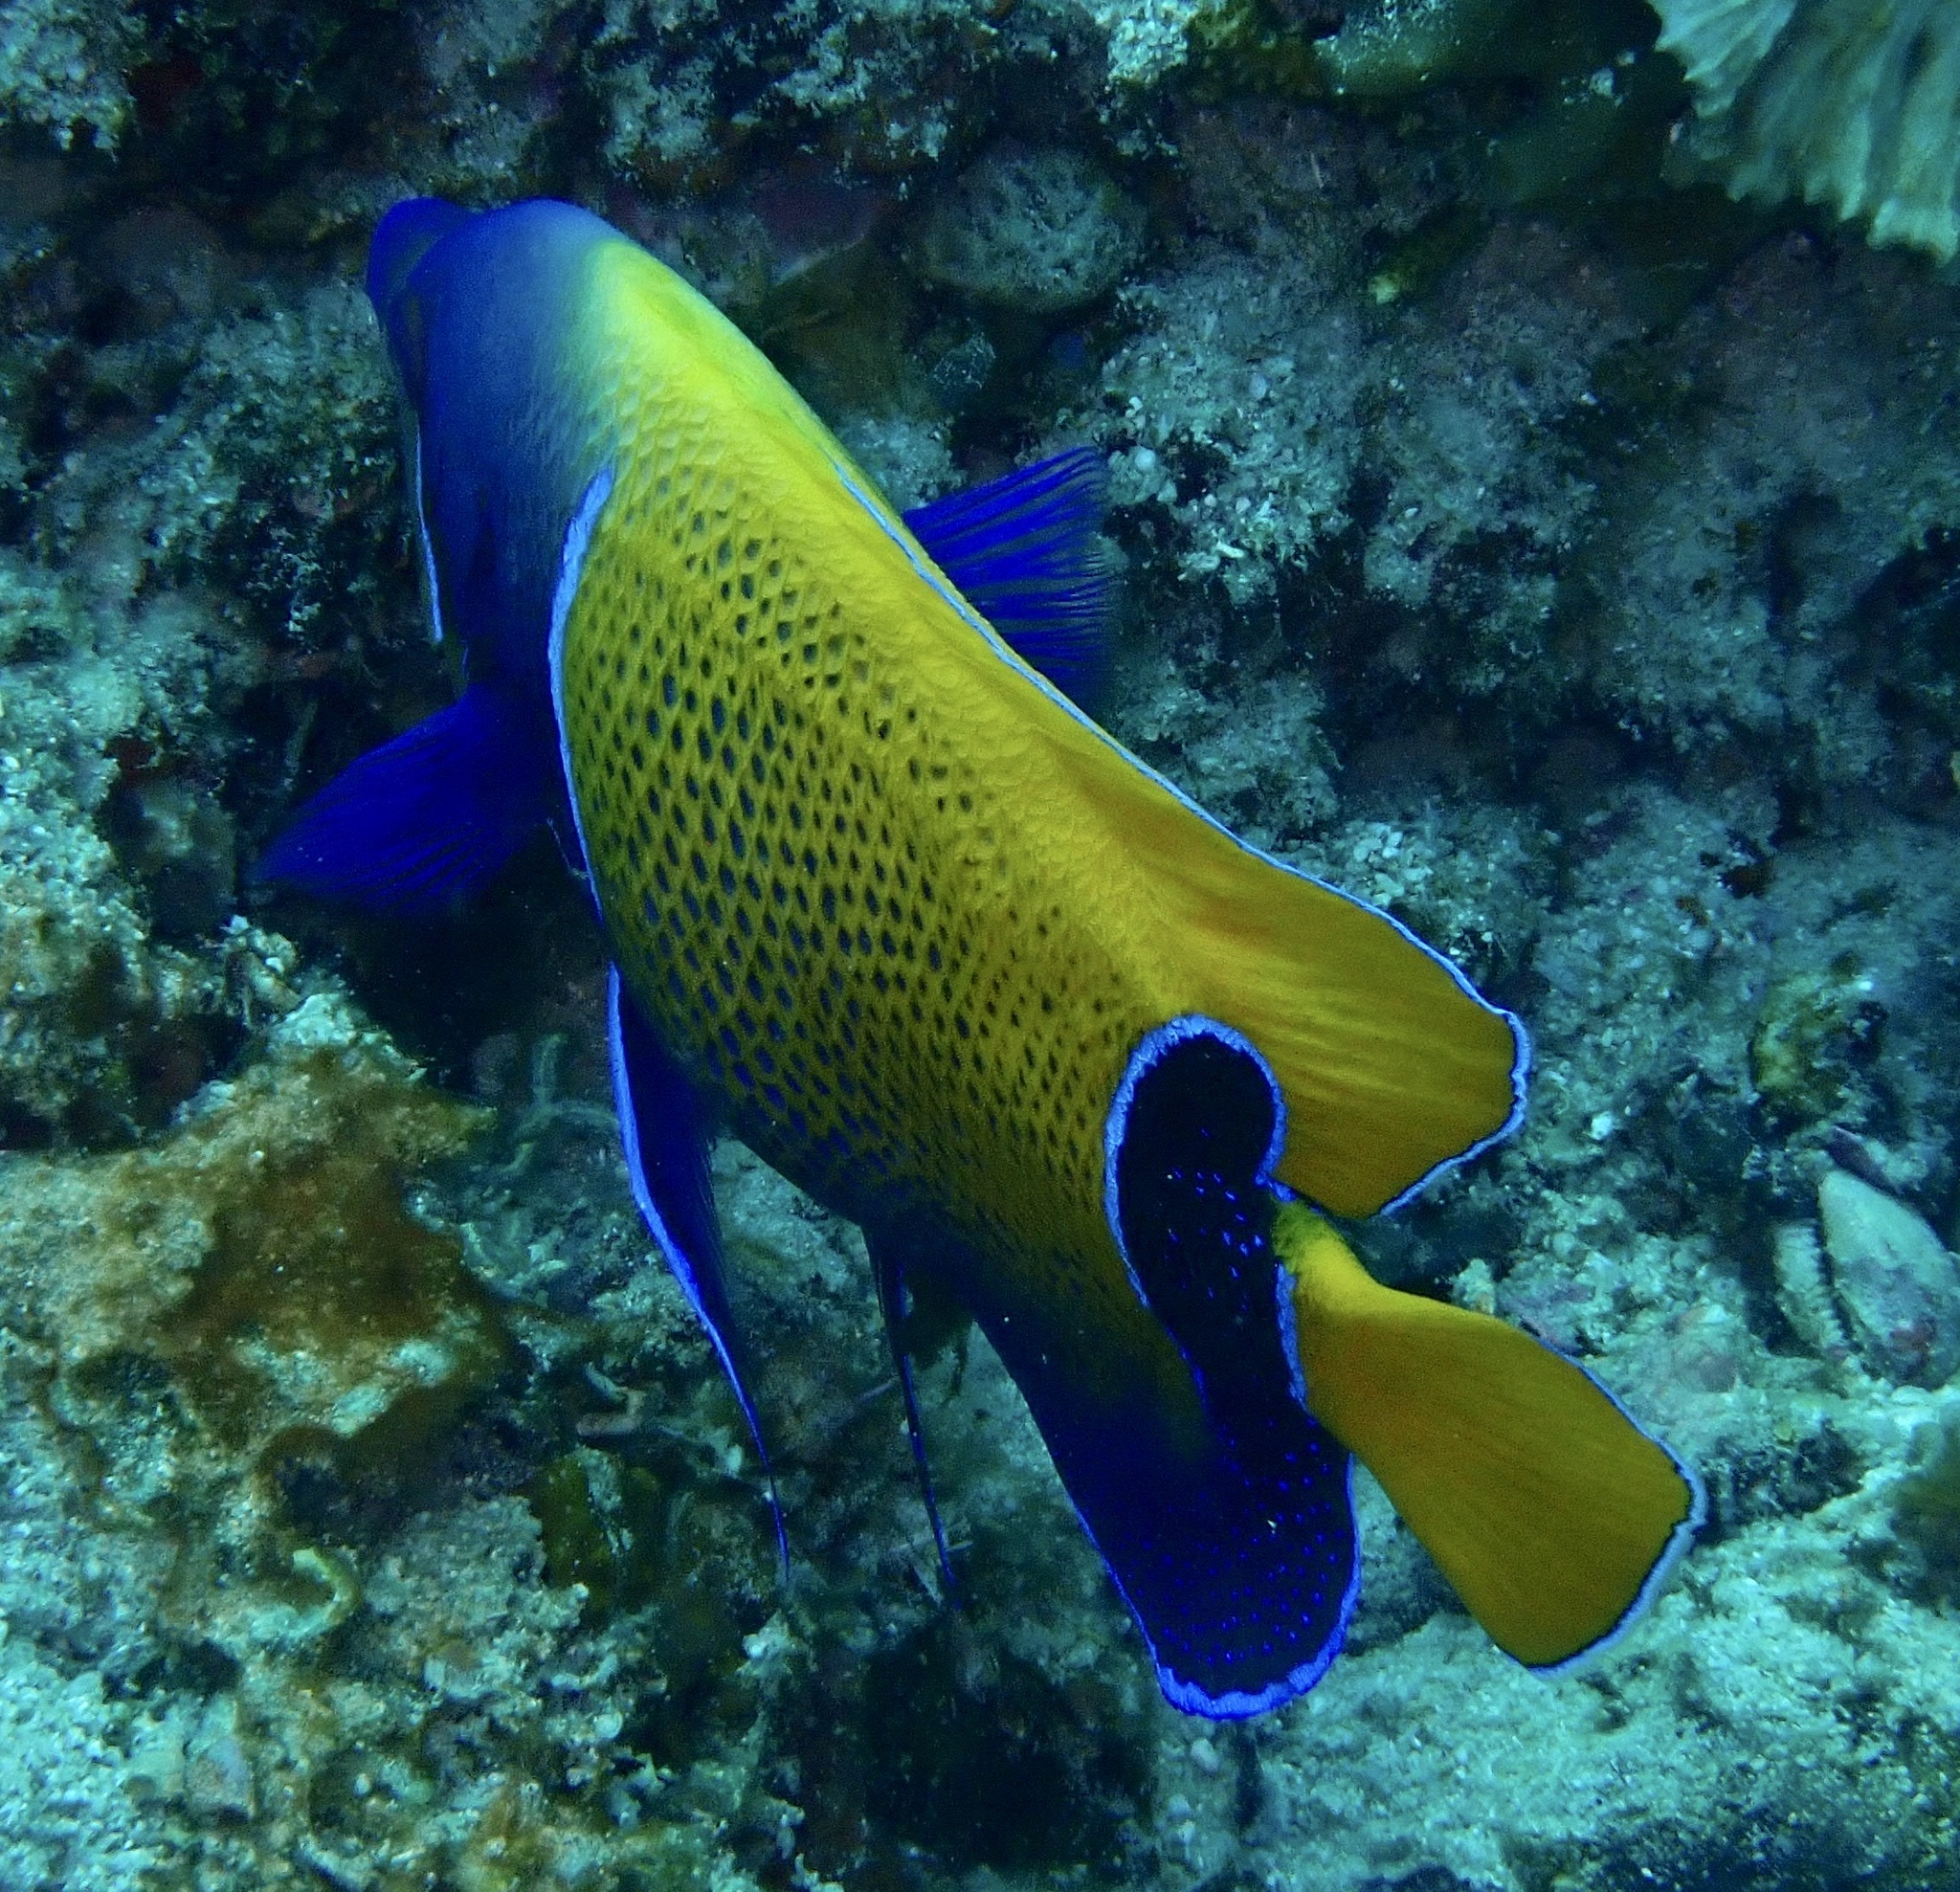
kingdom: Animalia
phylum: Chordata
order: Perciformes
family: Pomacanthidae
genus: Pomacanthus
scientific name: Pomacanthus navarchus
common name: Blue-girdled angelfish
